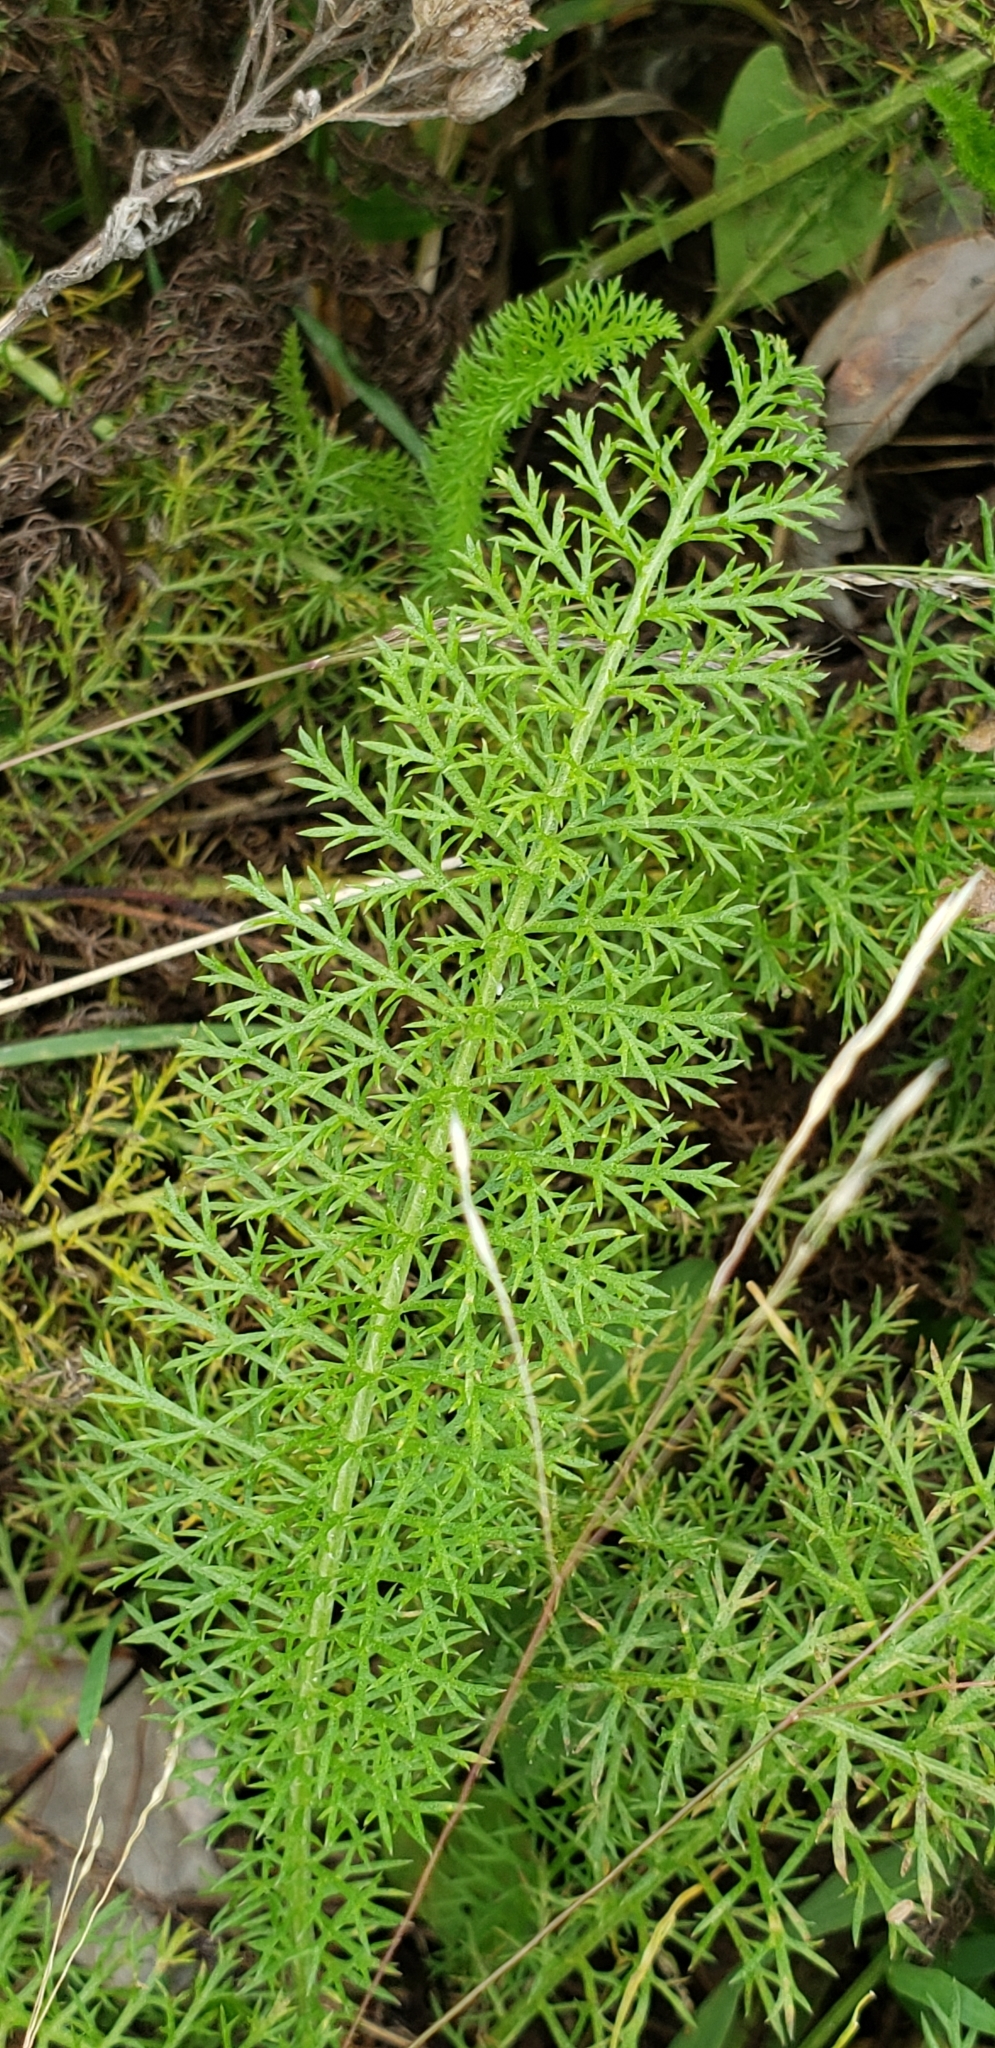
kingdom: Plantae
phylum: Tracheophyta
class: Magnoliopsida
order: Asterales
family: Asteraceae
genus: Achillea
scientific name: Achillea millefolium
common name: Yarrow
